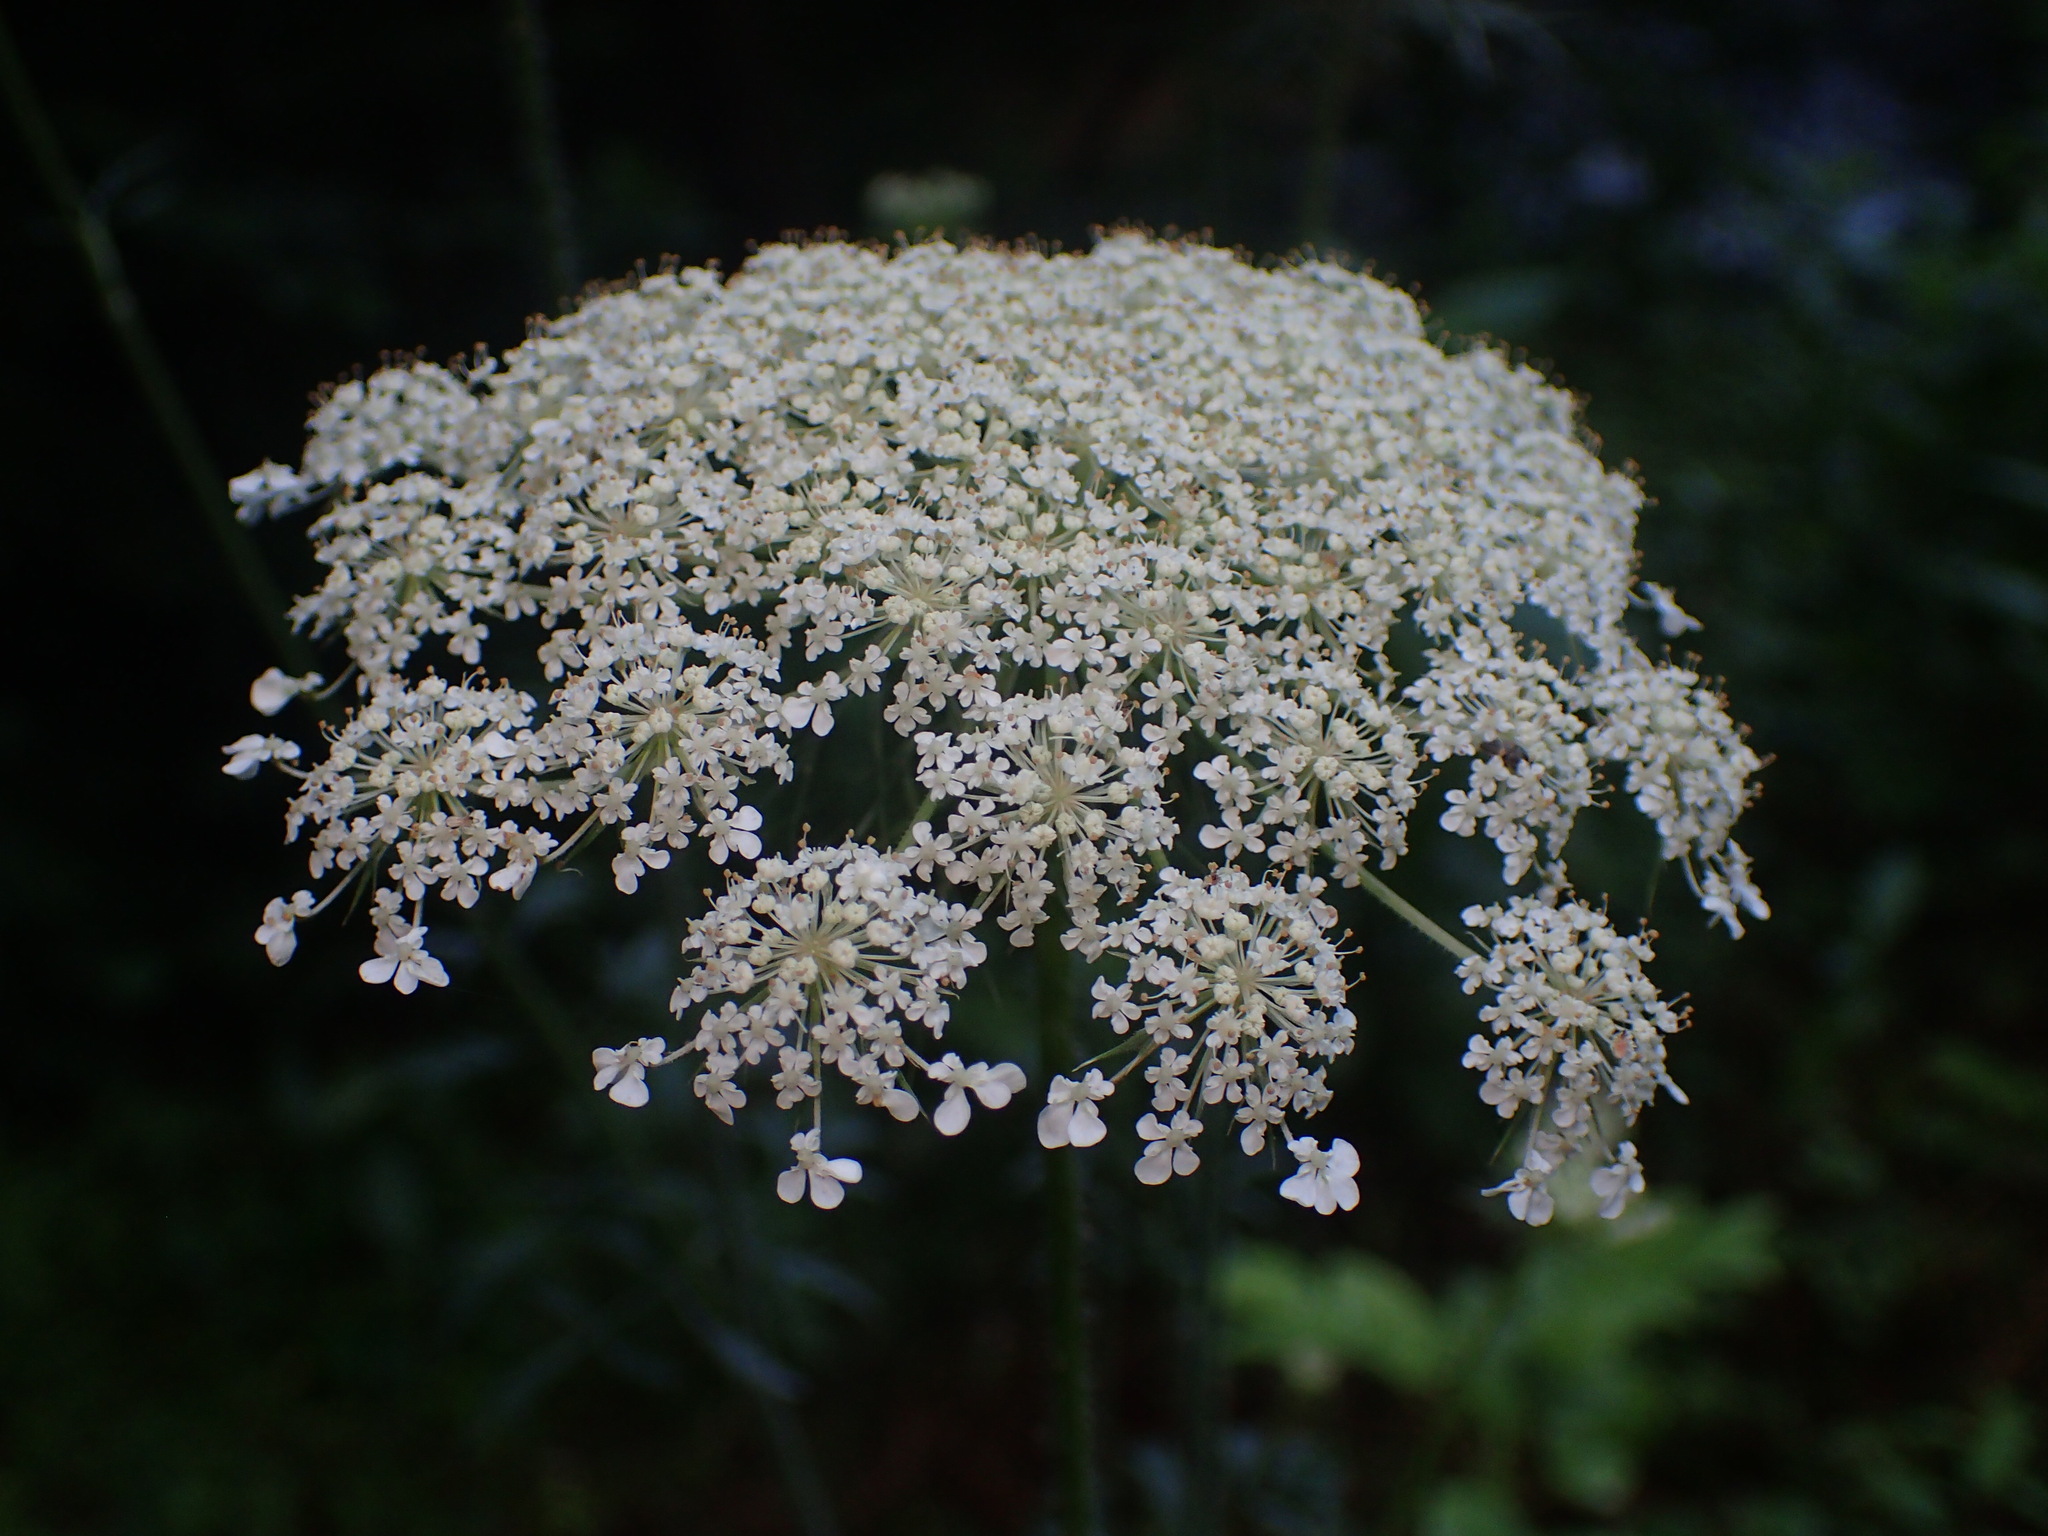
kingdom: Plantae
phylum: Tracheophyta
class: Magnoliopsida
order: Apiales
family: Apiaceae
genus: Daucus
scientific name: Daucus carota
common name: Wild carrot
